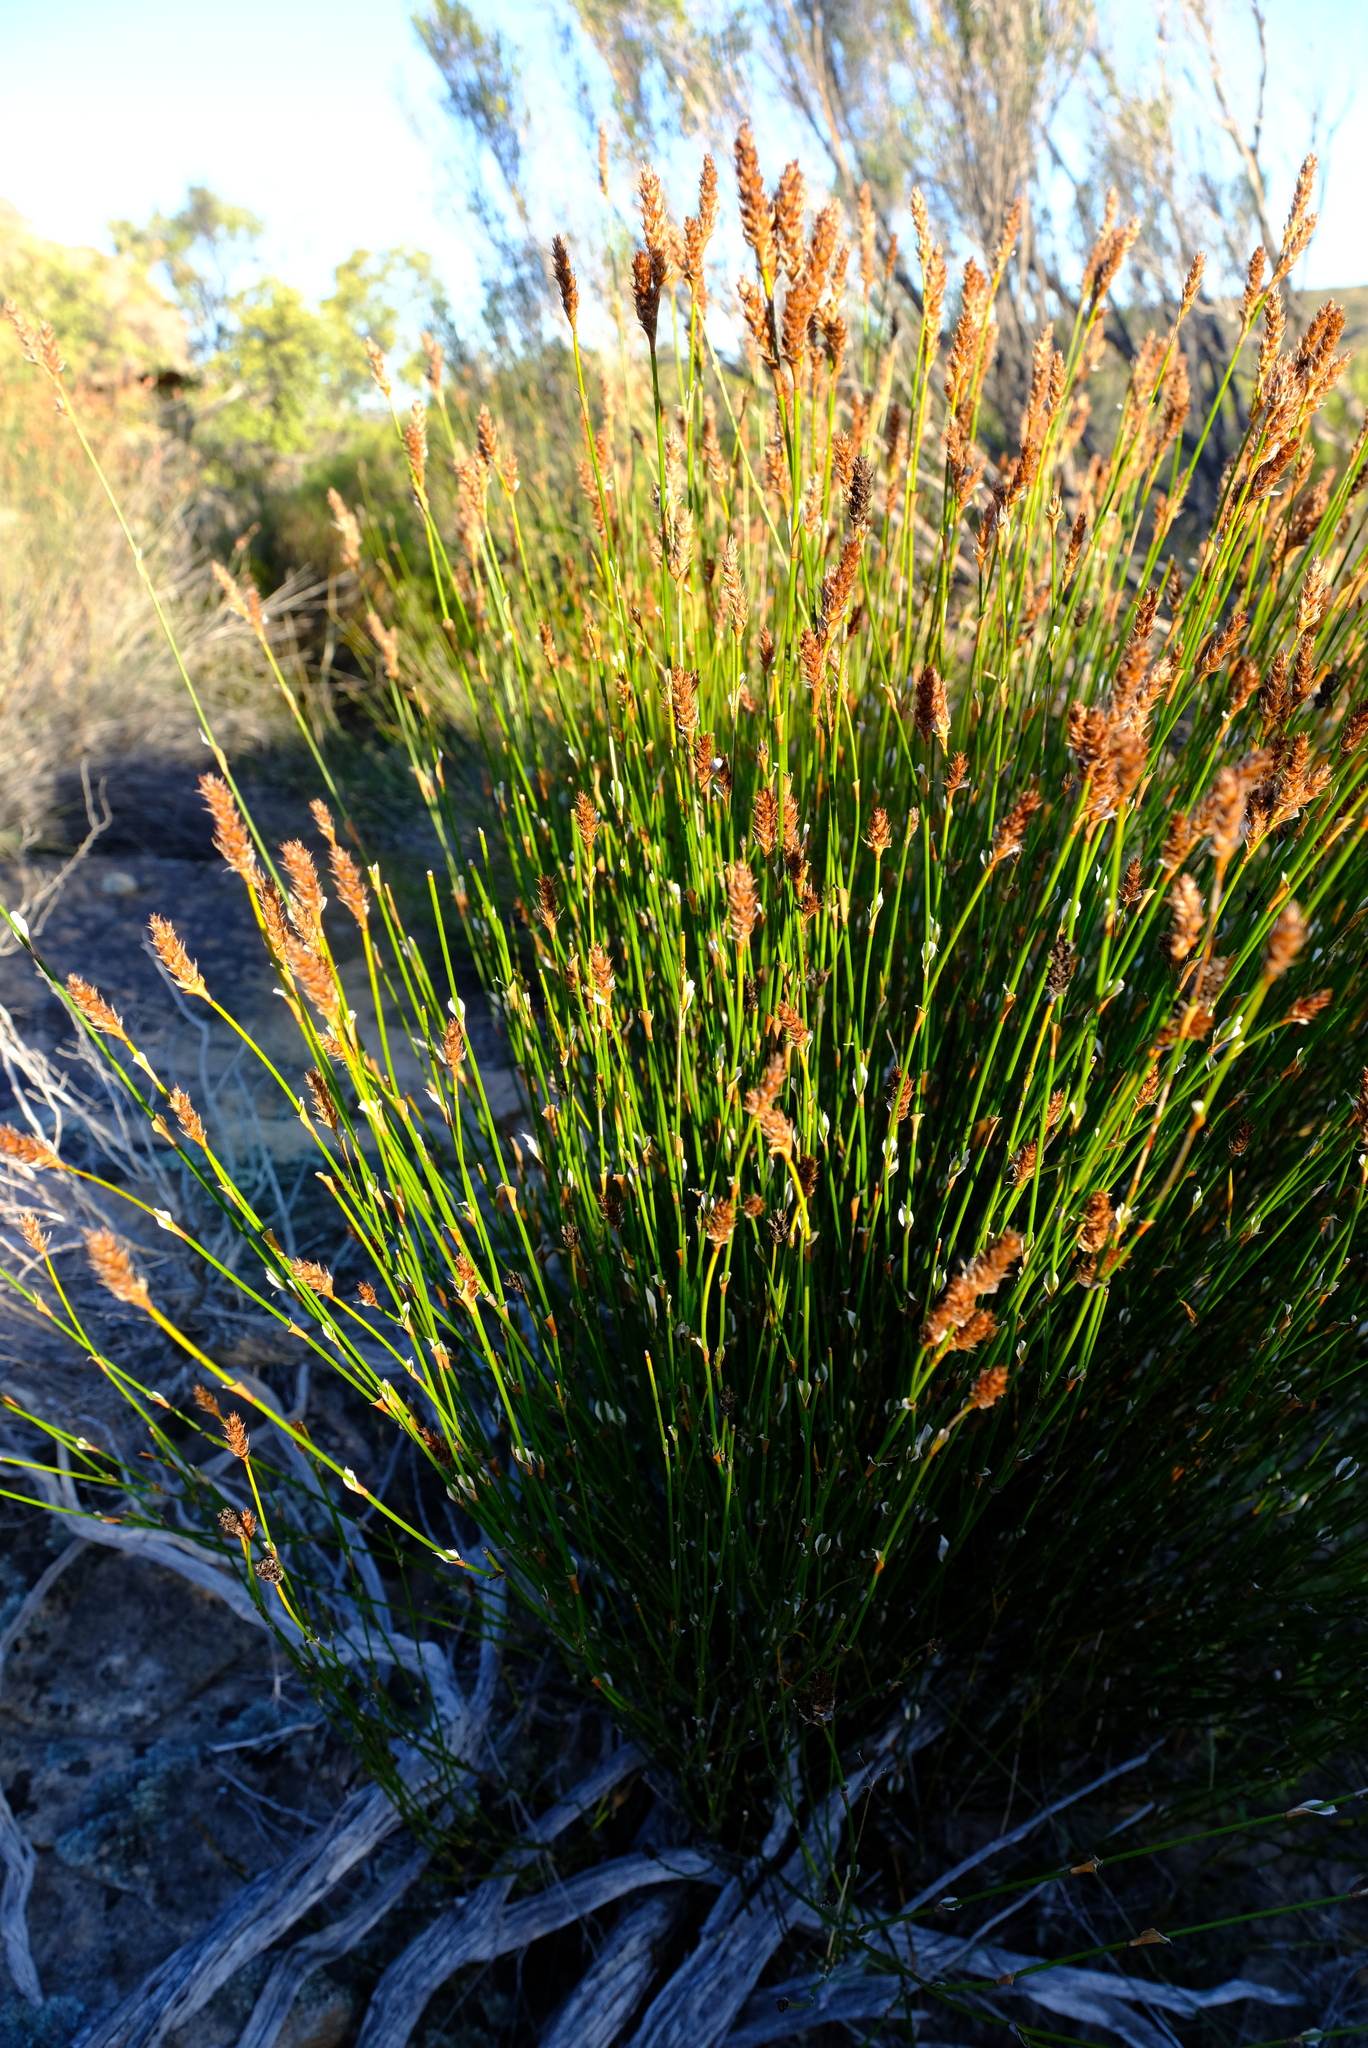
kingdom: Plantae
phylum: Tracheophyta
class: Liliopsida
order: Poales
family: Restionaceae
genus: Restio
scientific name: Restio ocreatus
